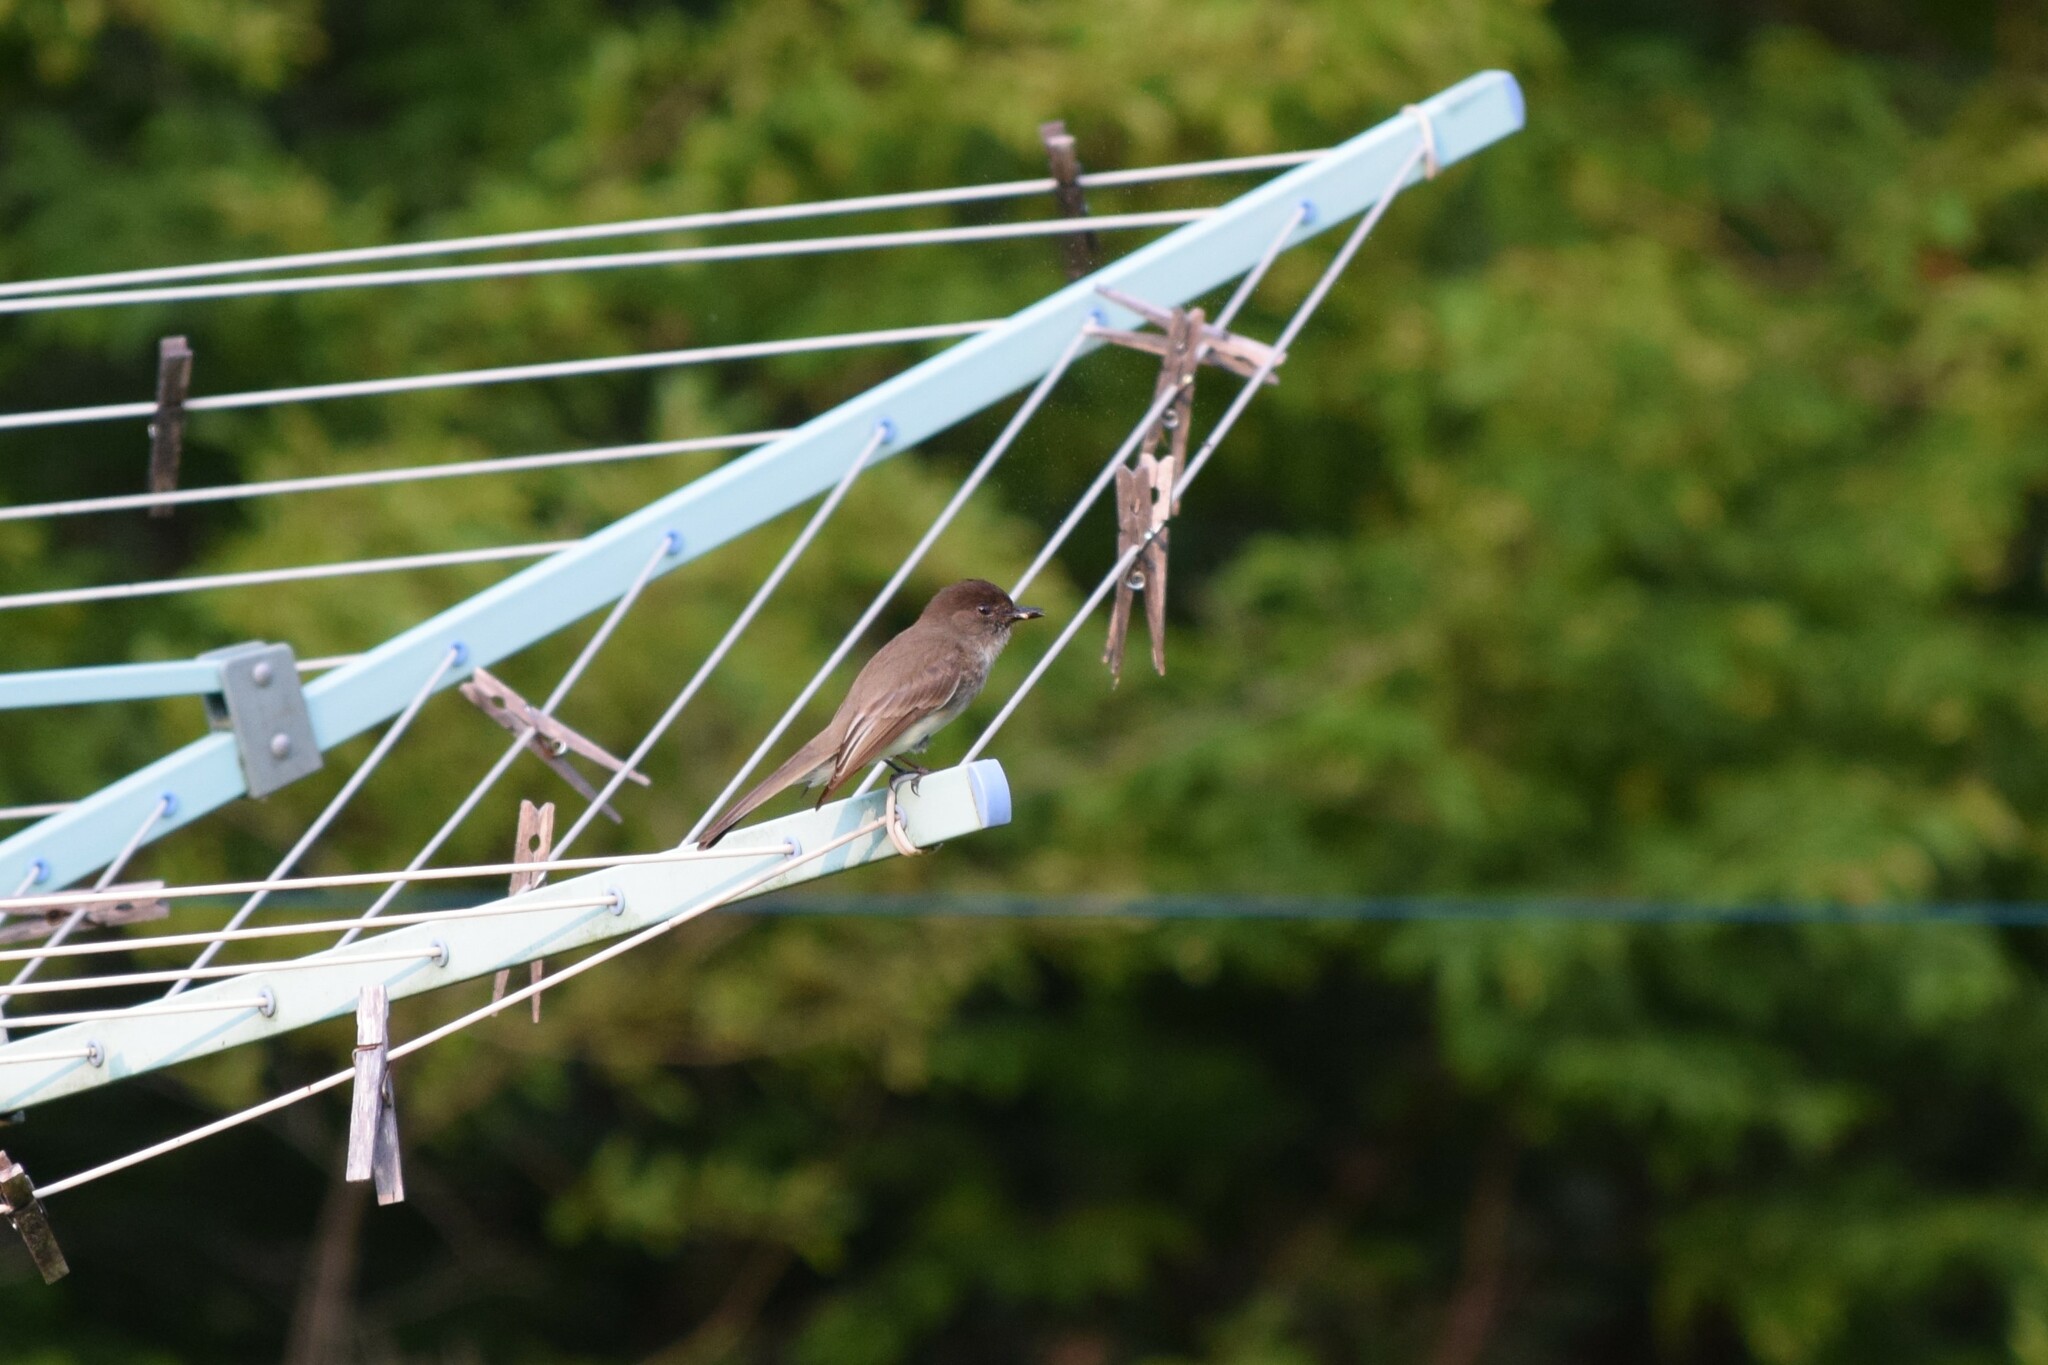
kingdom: Animalia
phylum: Chordata
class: Aves
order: Passeriformes
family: Tyrannidae
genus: Sayornis
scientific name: Sayornis phoebe
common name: Eastern phoebe
